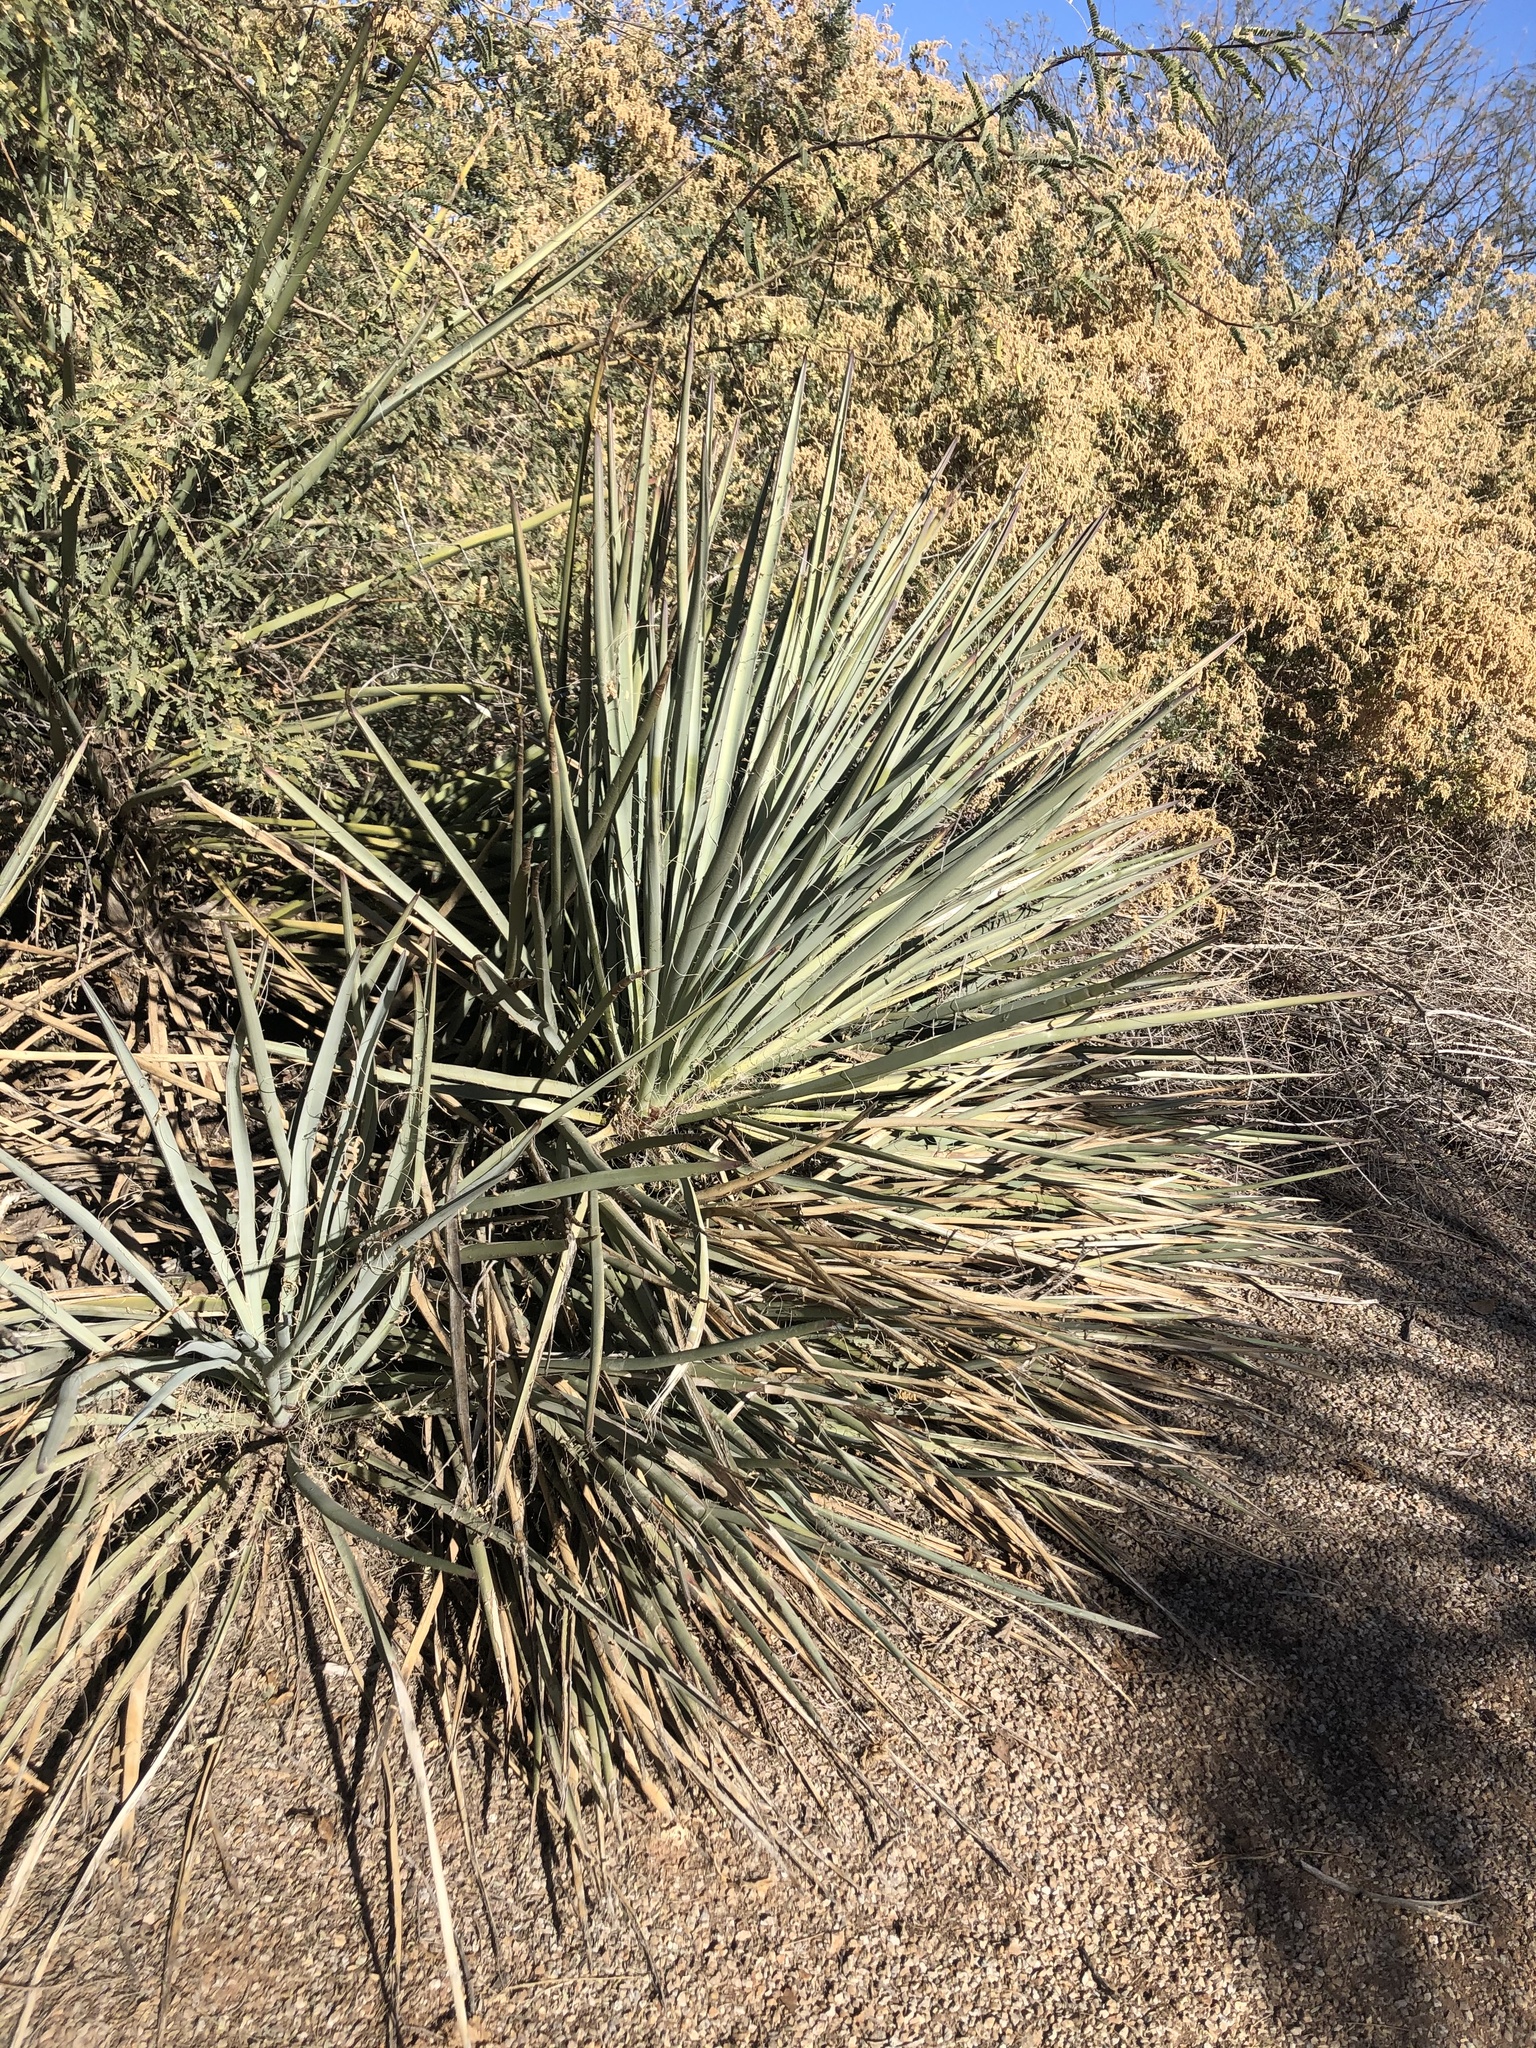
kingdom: Plantae
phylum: Tracheophyta
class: Liliopsida
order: Asparagales
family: Asparagaceae
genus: Yucca
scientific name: Yucca baccata
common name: Banana yucca
